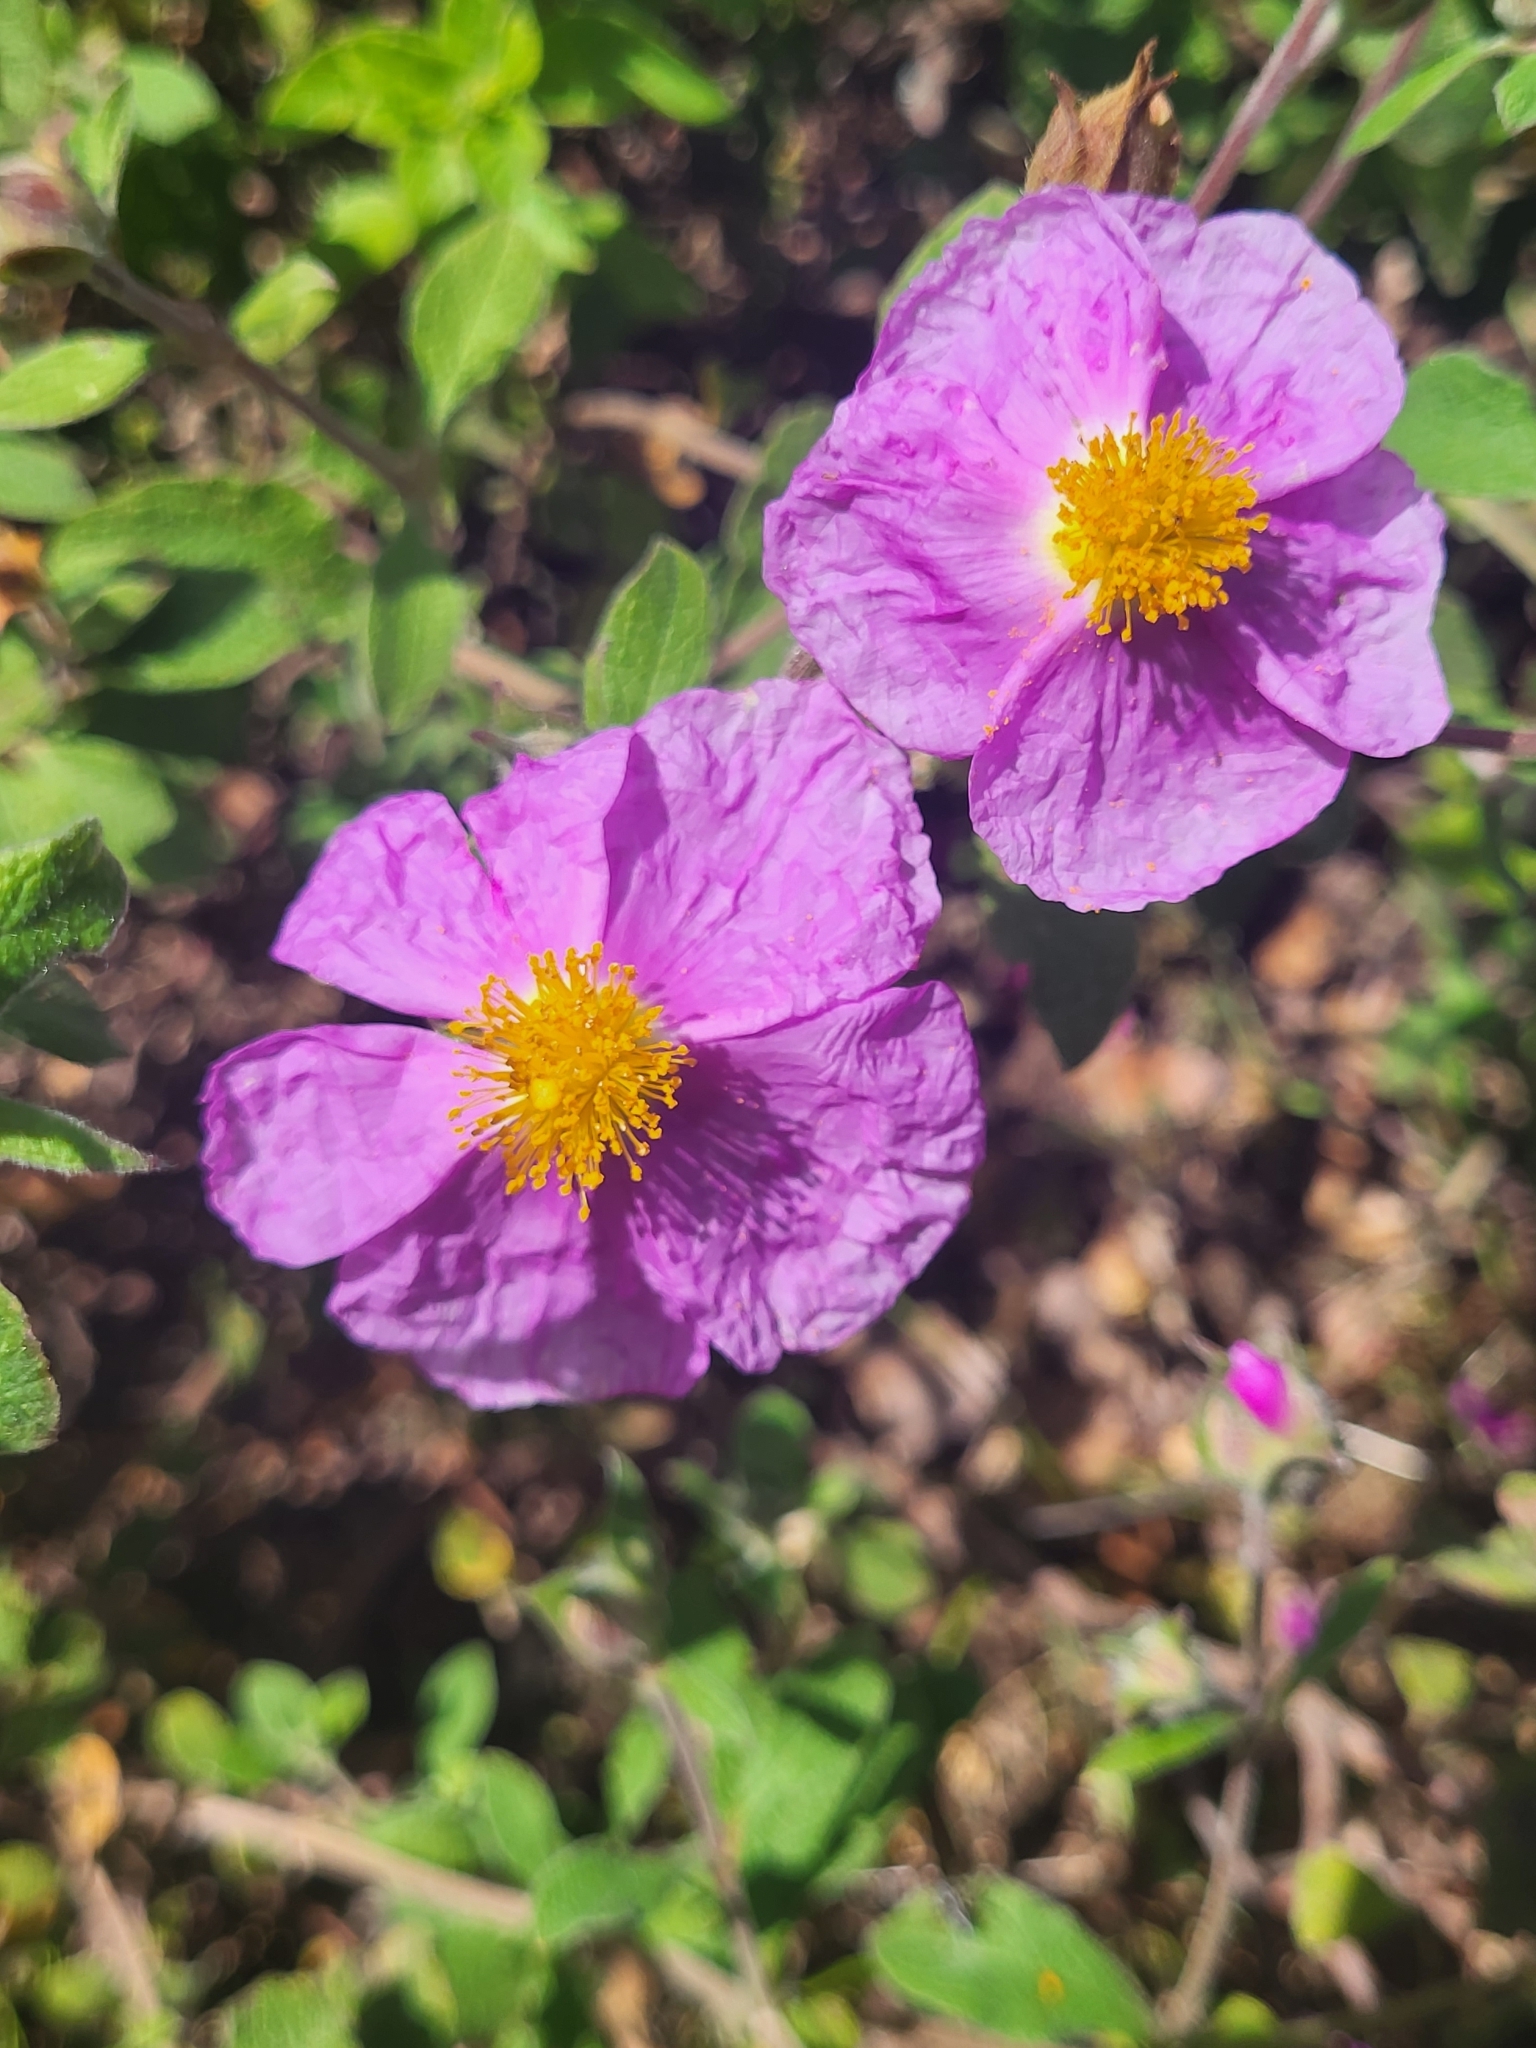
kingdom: Plantae
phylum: Tracheophyta
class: Magnoliopsida
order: Malvales
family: Cistaceae
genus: Cistus
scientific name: Cistus creticus
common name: Cretan rockrose
